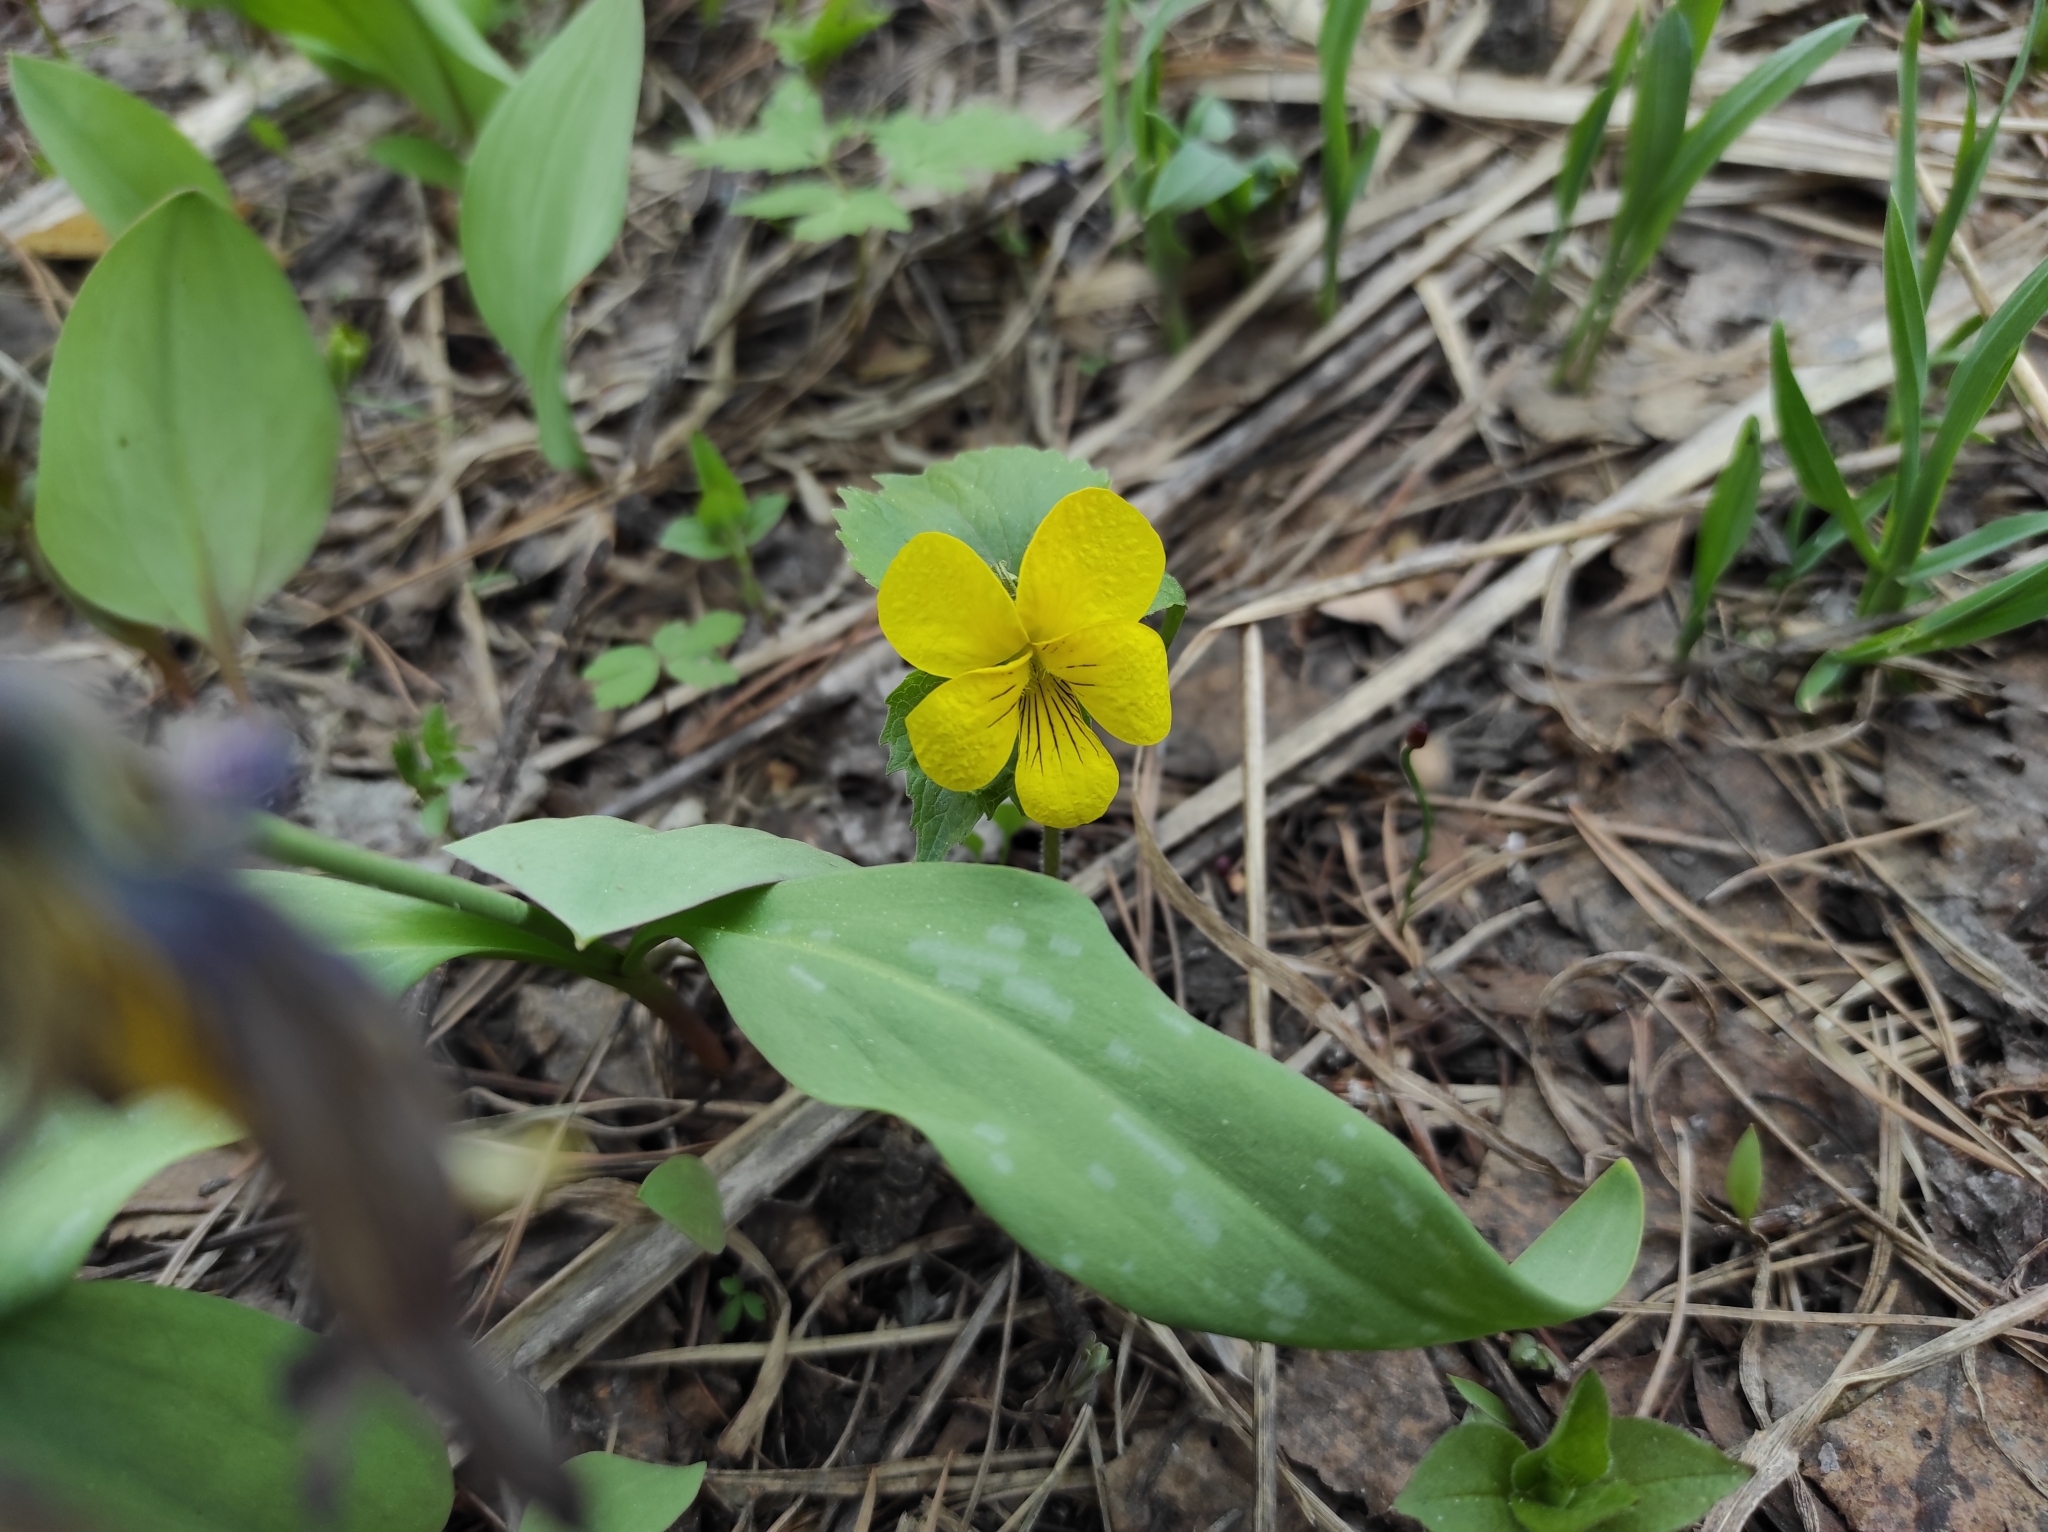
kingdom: Plantae
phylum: Tracheophyta
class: Magnoliopsida
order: Malpighiales
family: Violaceae
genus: Viola
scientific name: Viola uniflora
